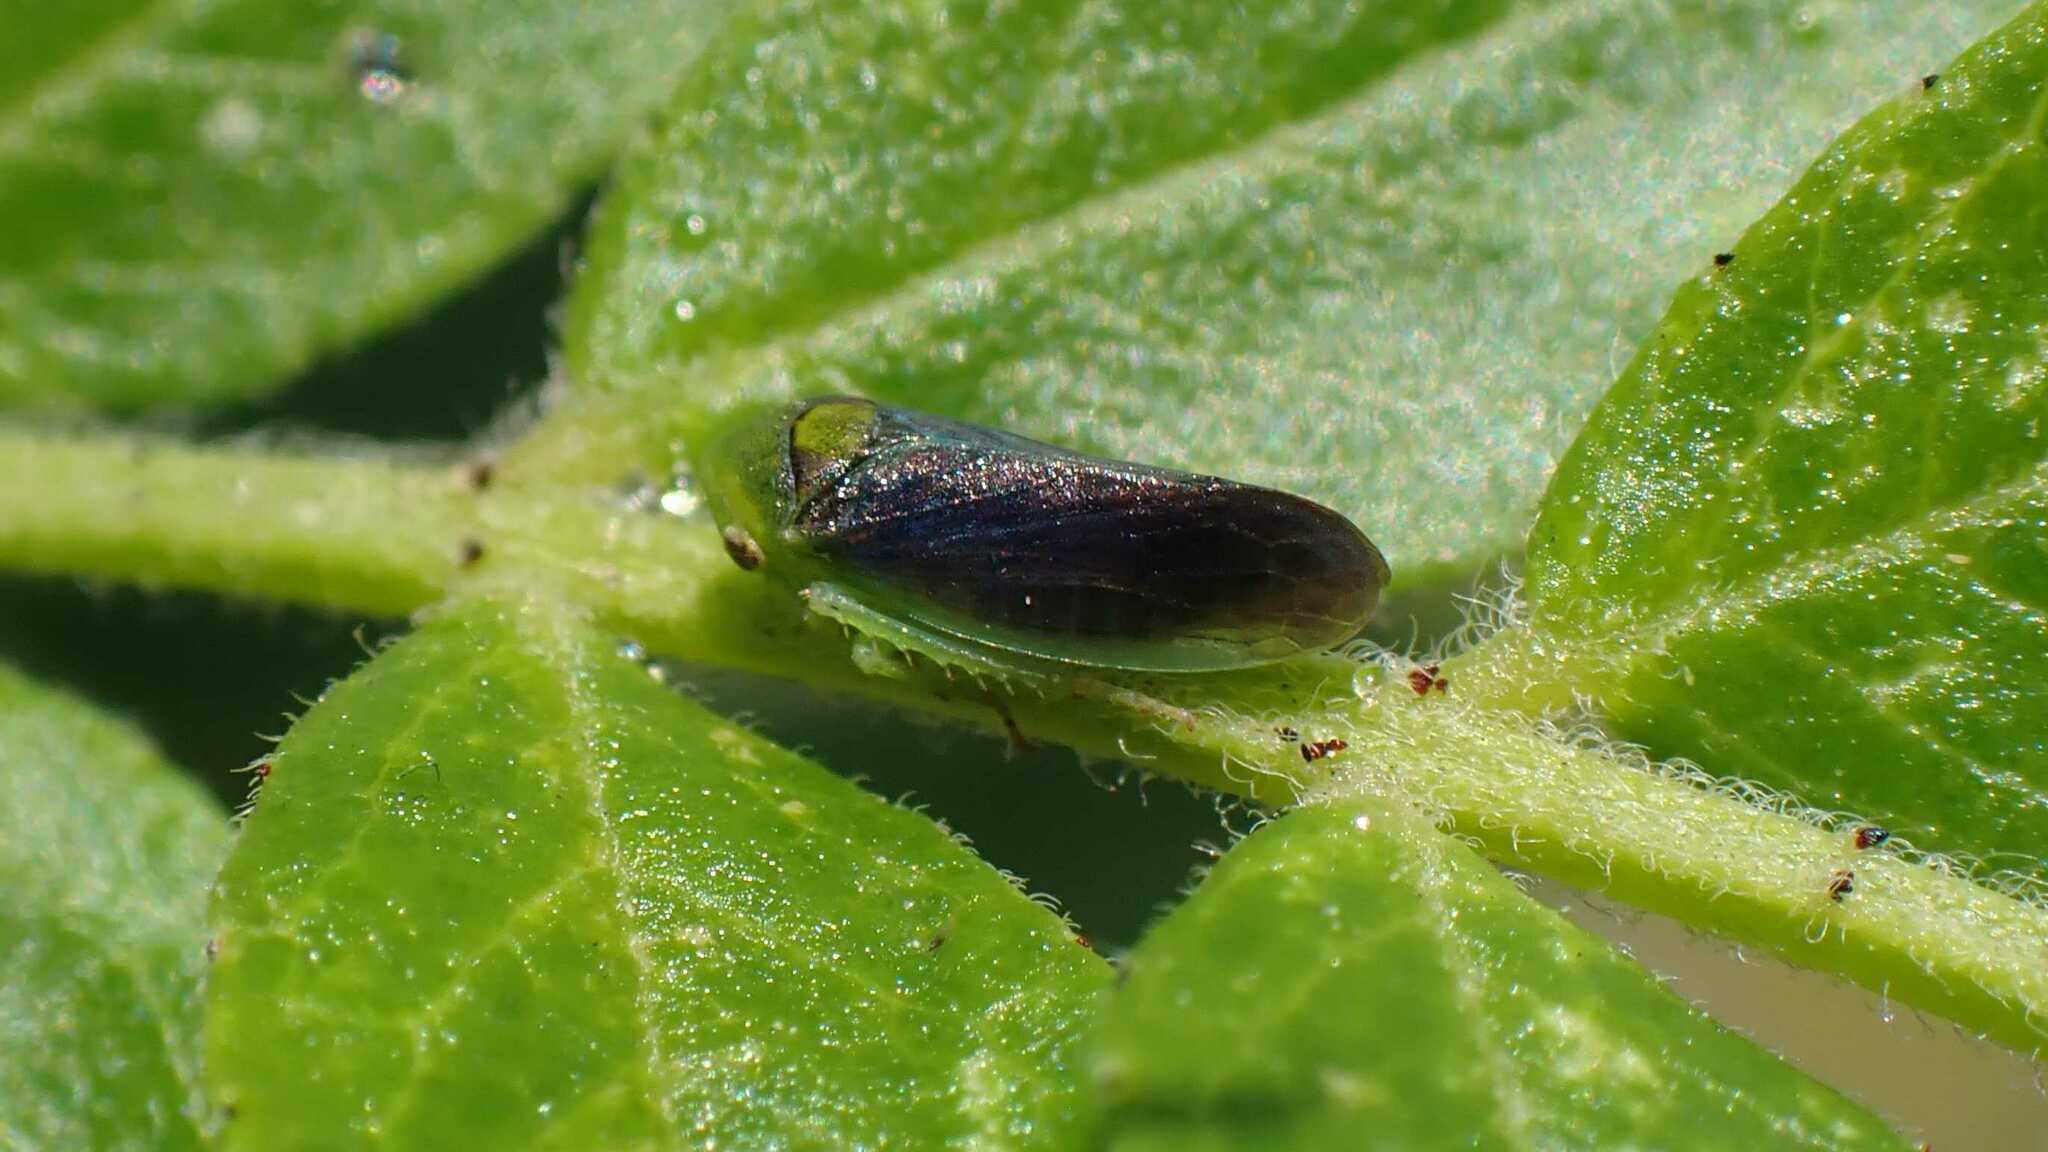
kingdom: Animalia
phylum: Arthropoda
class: Insecta
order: Hemiptera
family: Cicadellidae
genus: Macropsis
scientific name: Macropsis fumipennis
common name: The honeylocust leafhopper
